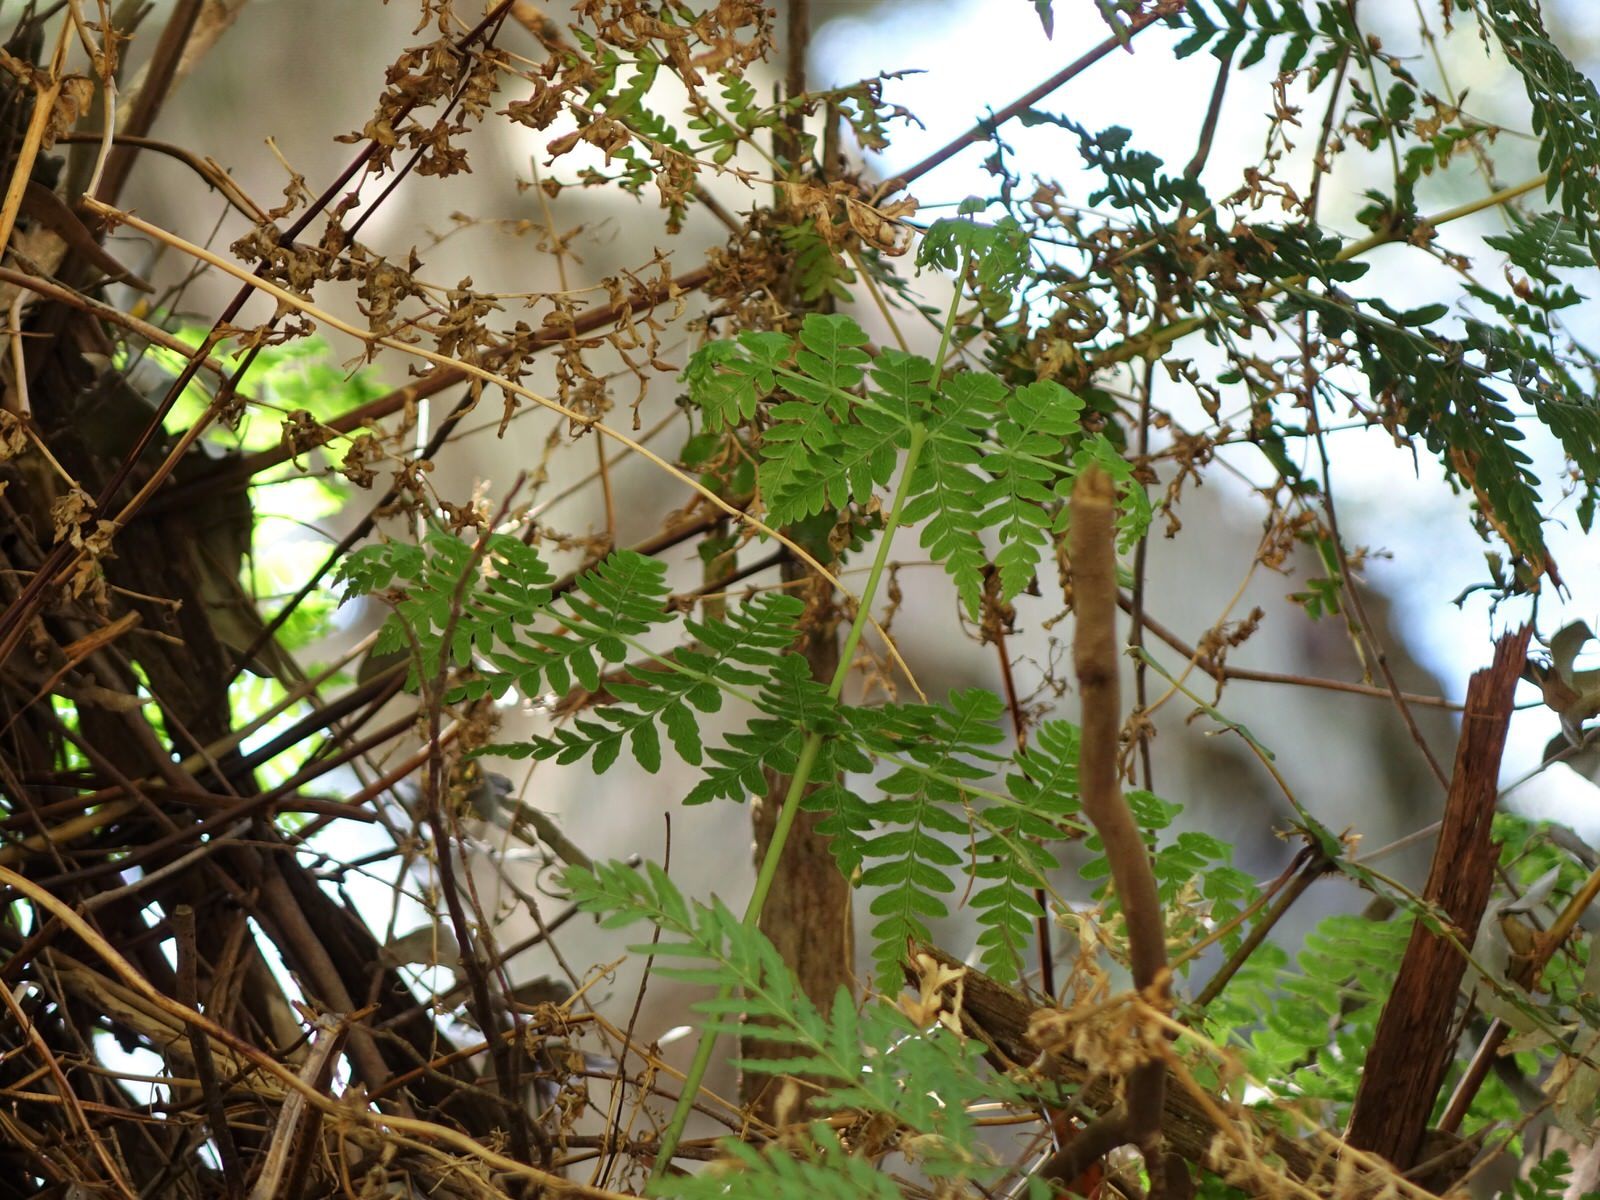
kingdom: Plantae
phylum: Tracheophyta
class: Polypodiopsida
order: Polypodiales
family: Dennstaedtiaceae
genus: Histiopteris
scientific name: Histiopteris incisa
